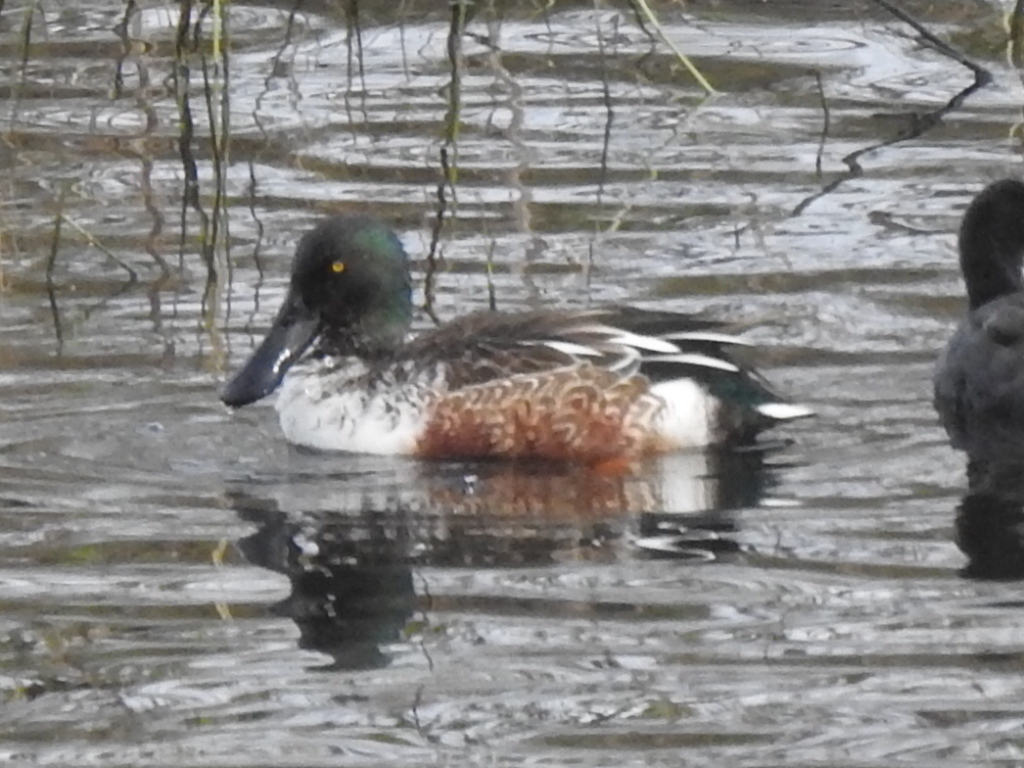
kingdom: Animalia
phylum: Chordata
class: Aves
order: Anseriformes
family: Anatidae
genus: Spatula
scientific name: Spatula clypeata
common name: Northern shoveler
